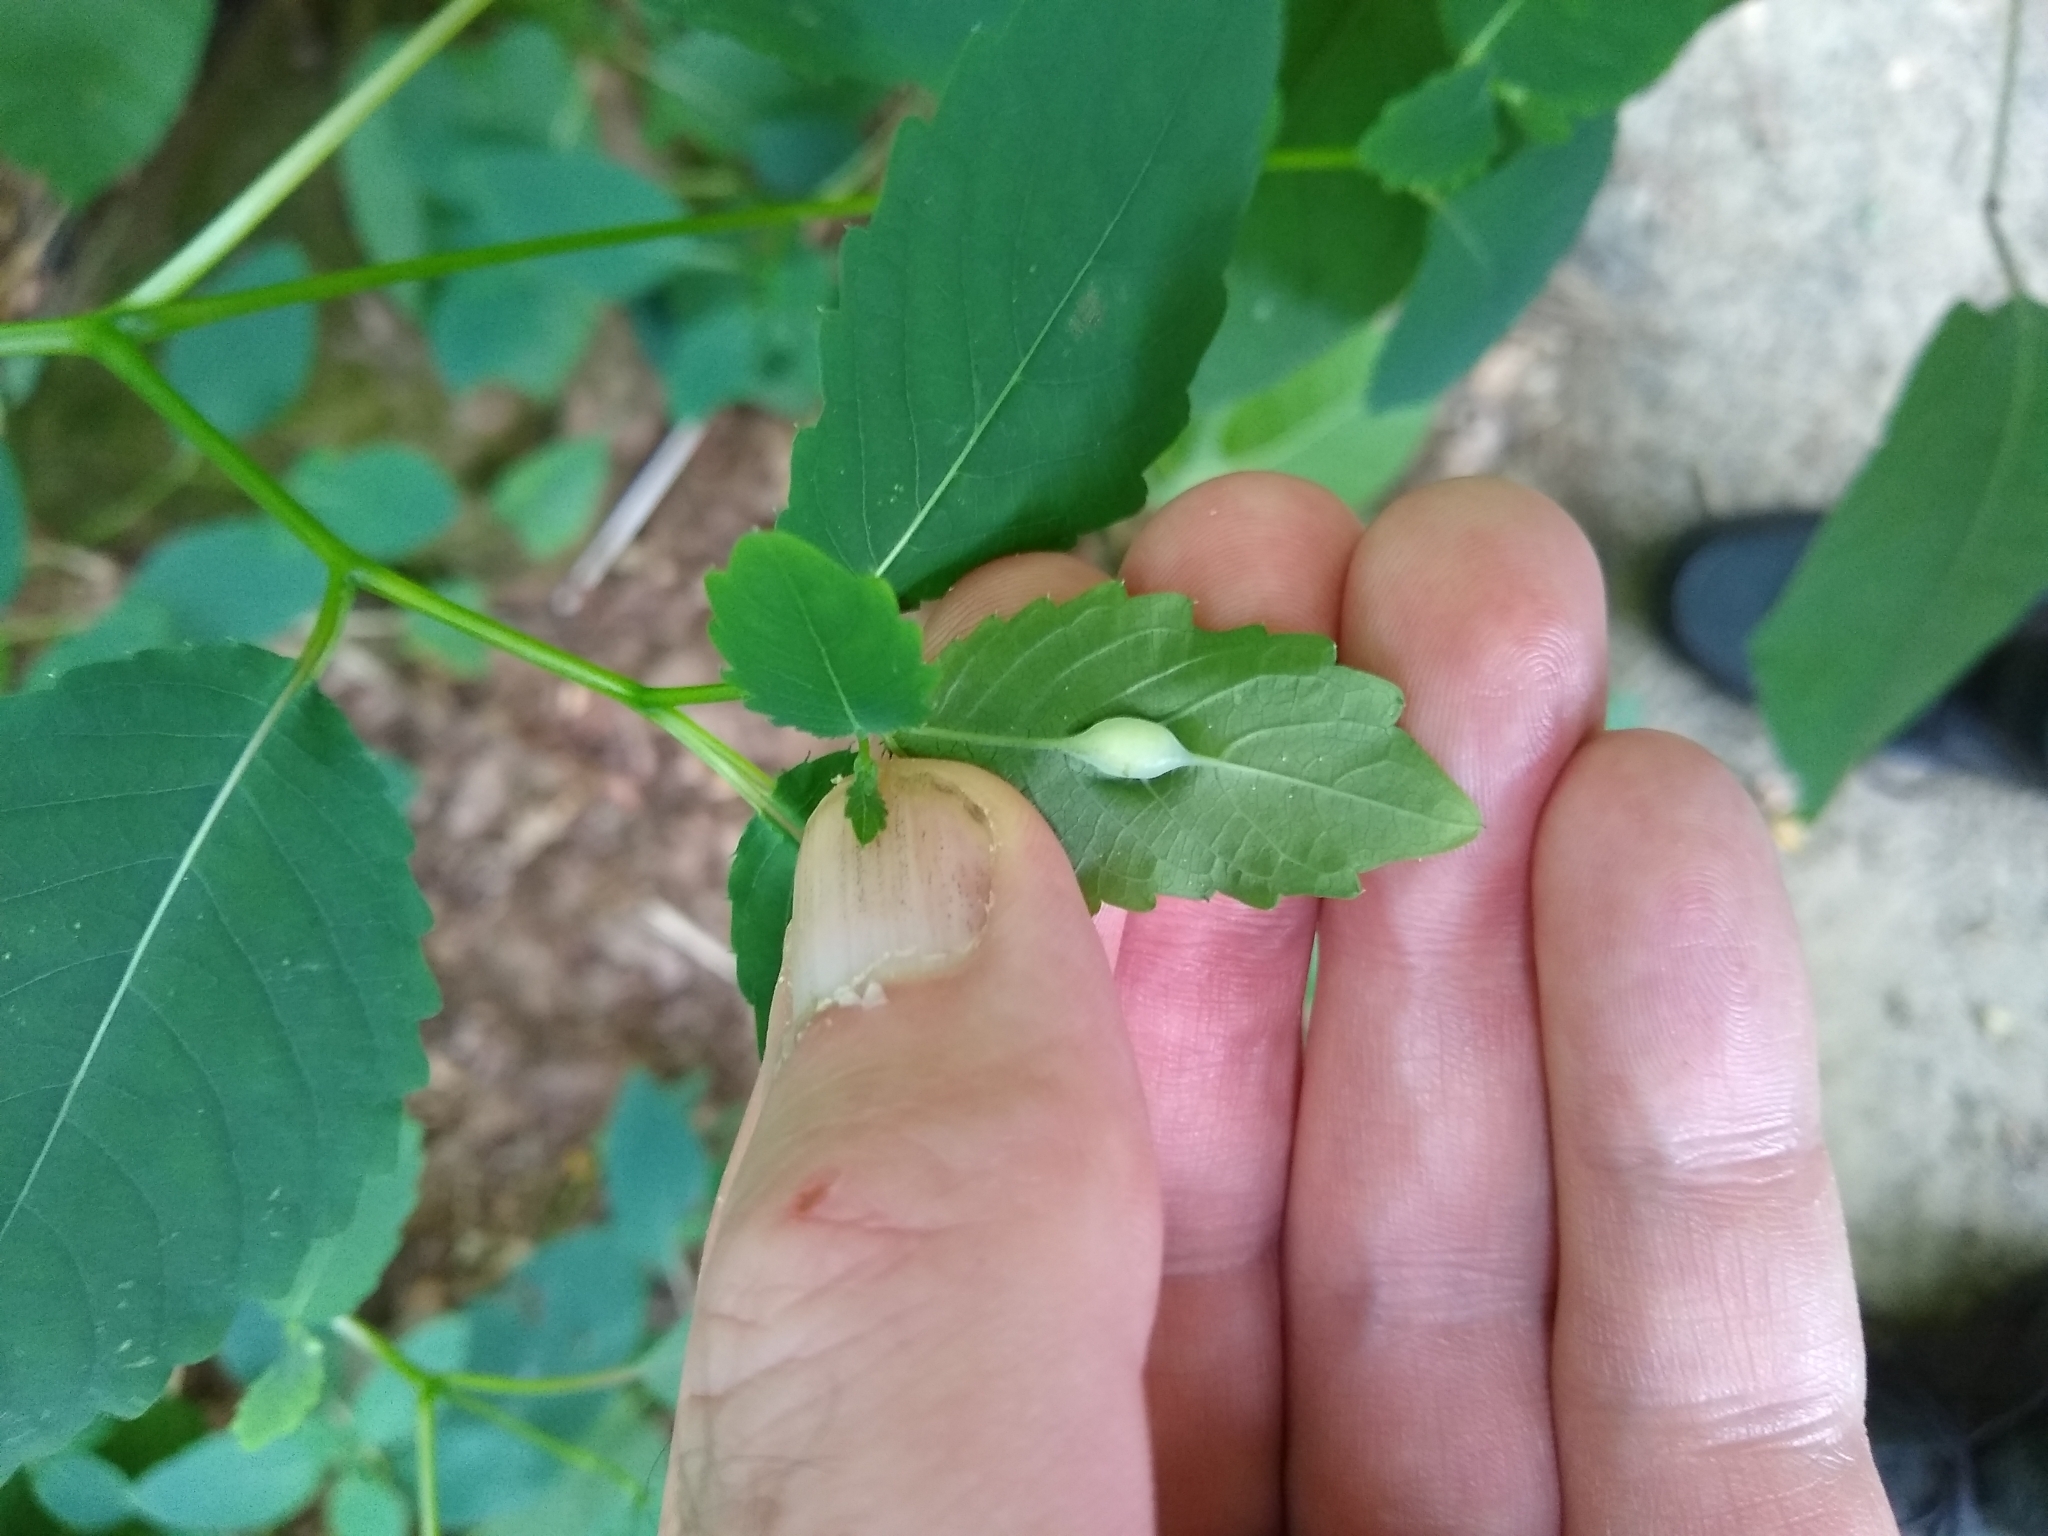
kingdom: Animalia
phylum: Arthropoda
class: Insecta
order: Diptera
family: Cecidomyiidae
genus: Neolasioptera
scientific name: Neolasioptera impatientifolia
